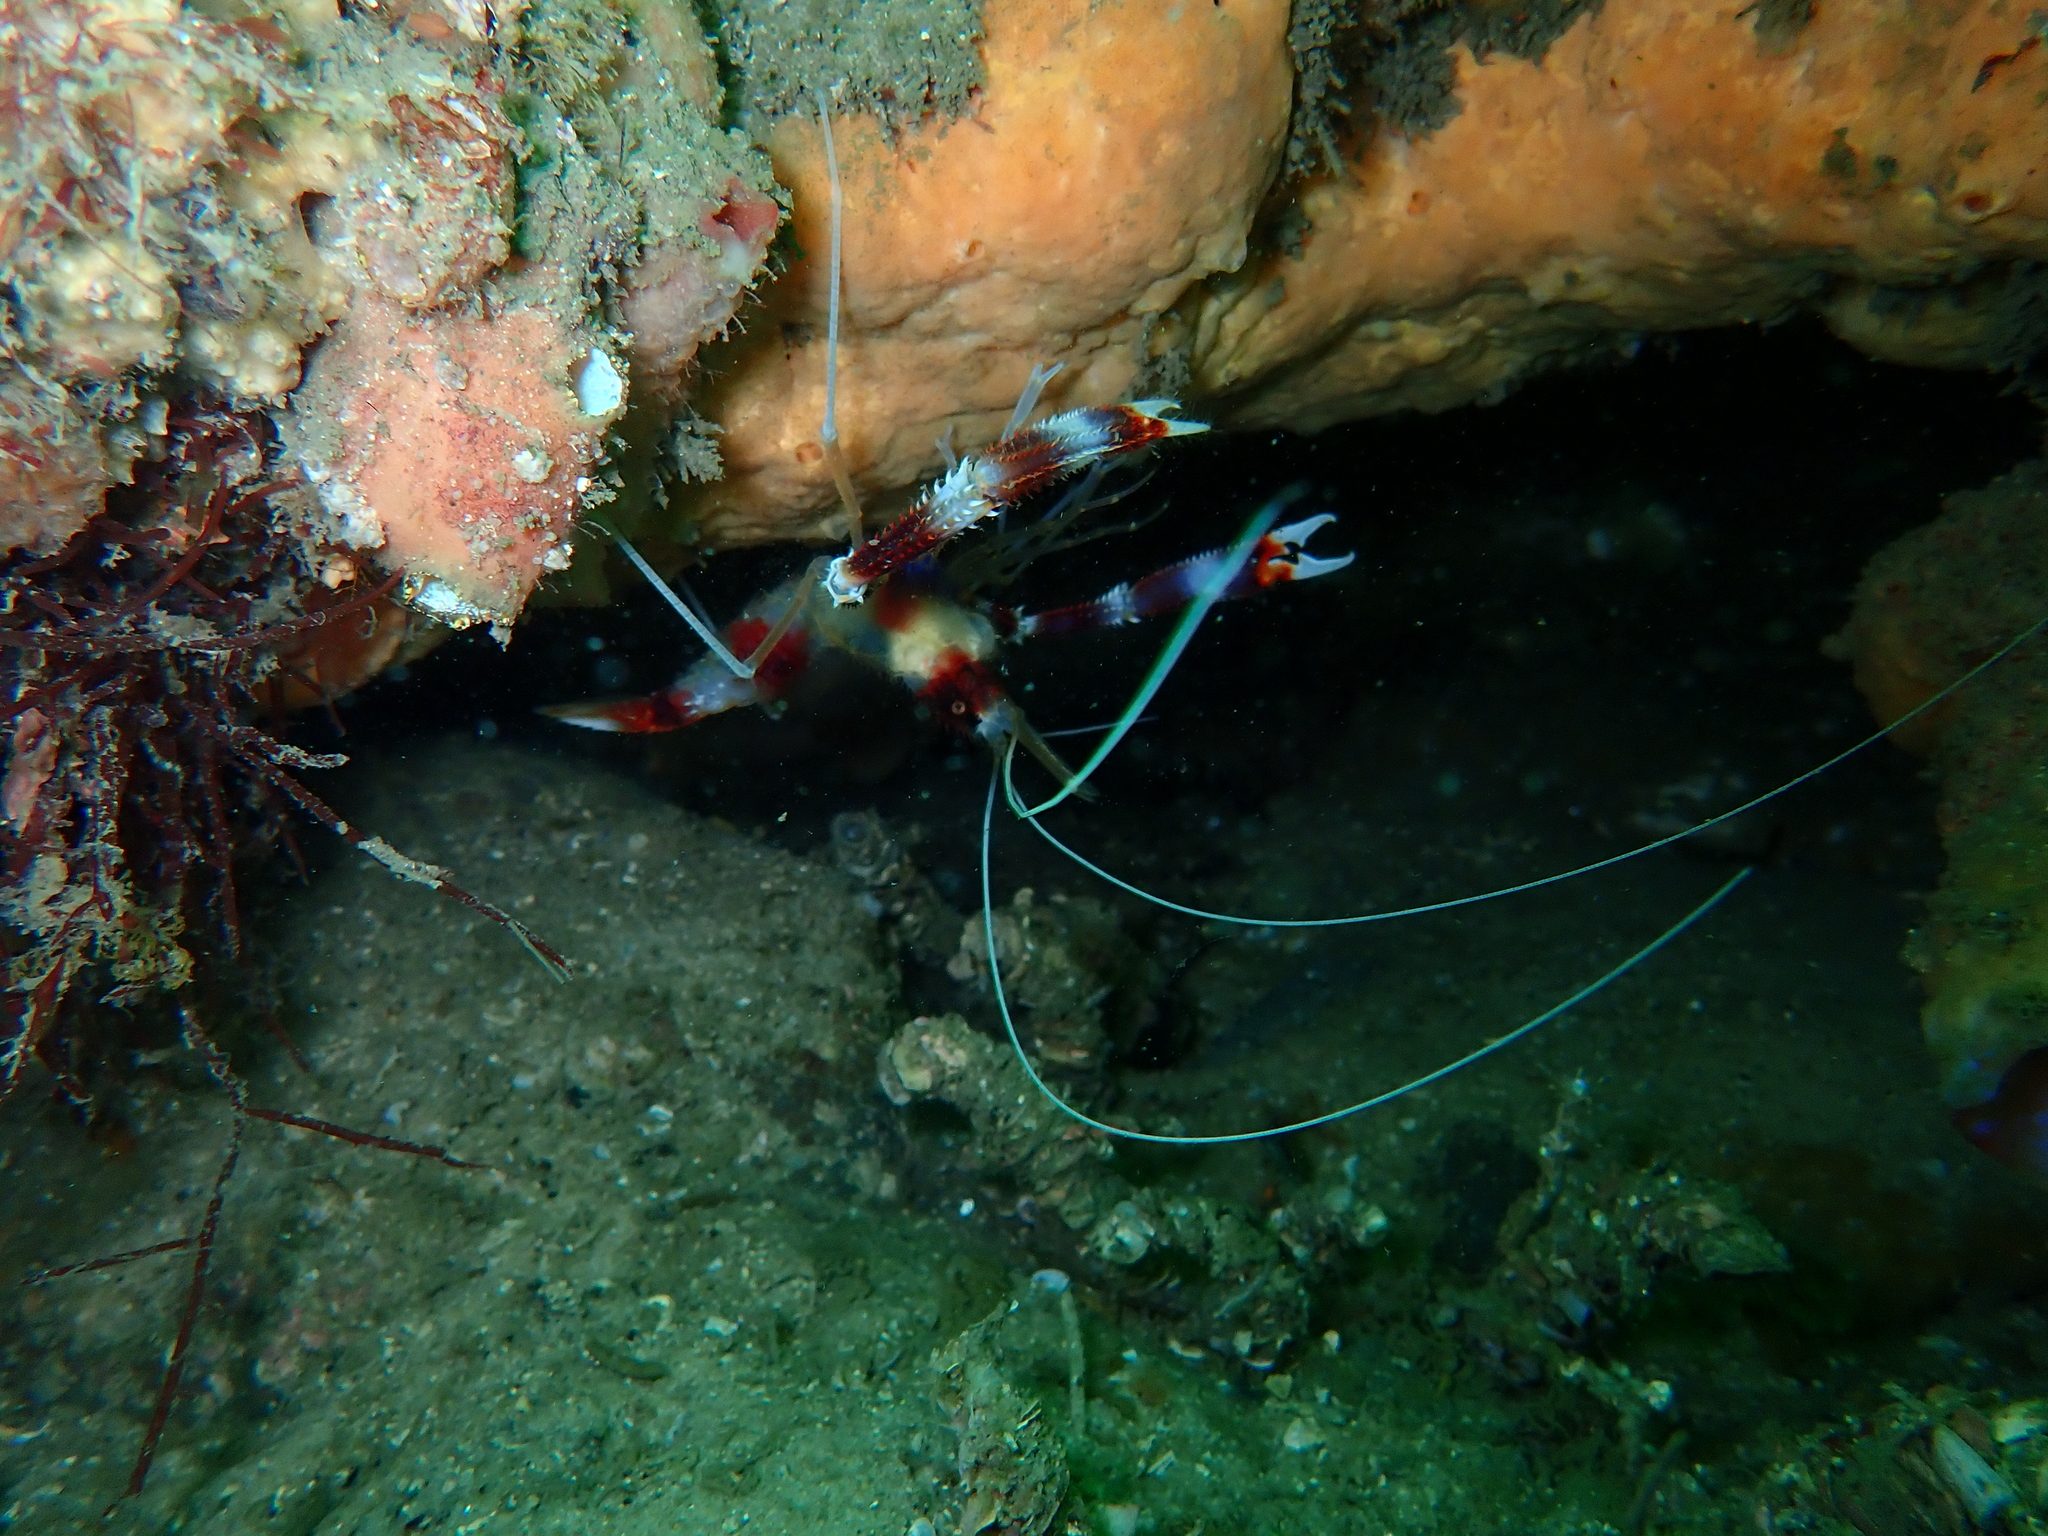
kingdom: Animalia
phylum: Arthropoda
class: Malacostraca
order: Decapoda
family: Stenopodidae
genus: Stenopus
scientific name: Stenopus hispidus
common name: Banded coral shrimp
